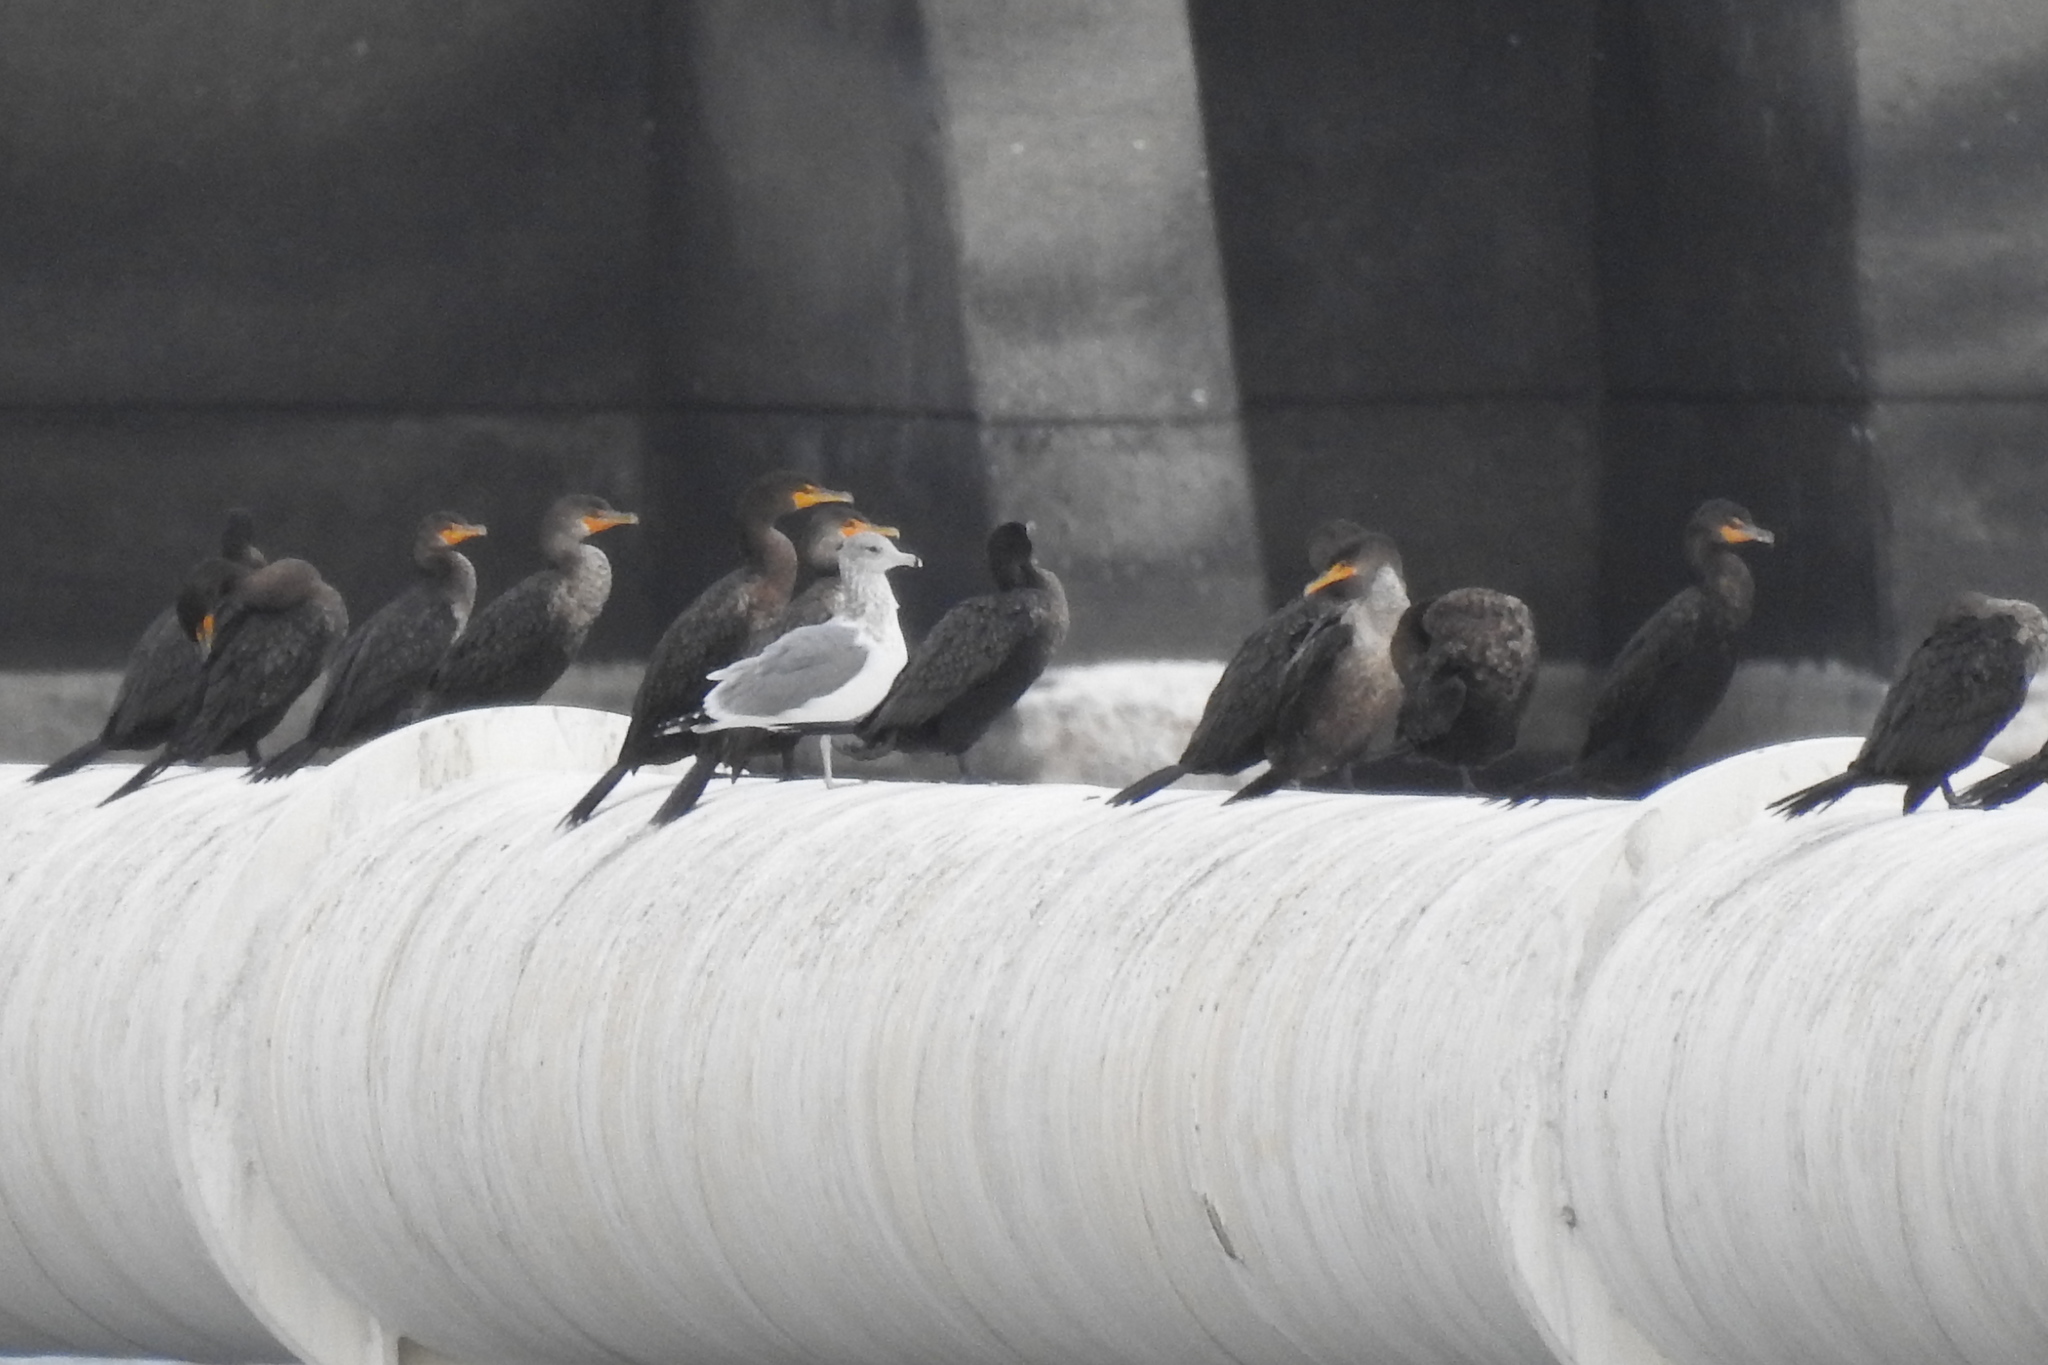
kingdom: Animalia
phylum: Chordata
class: Aves
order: Charadriiformes
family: Laridae
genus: Larus
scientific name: Larus californicus
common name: California gull
